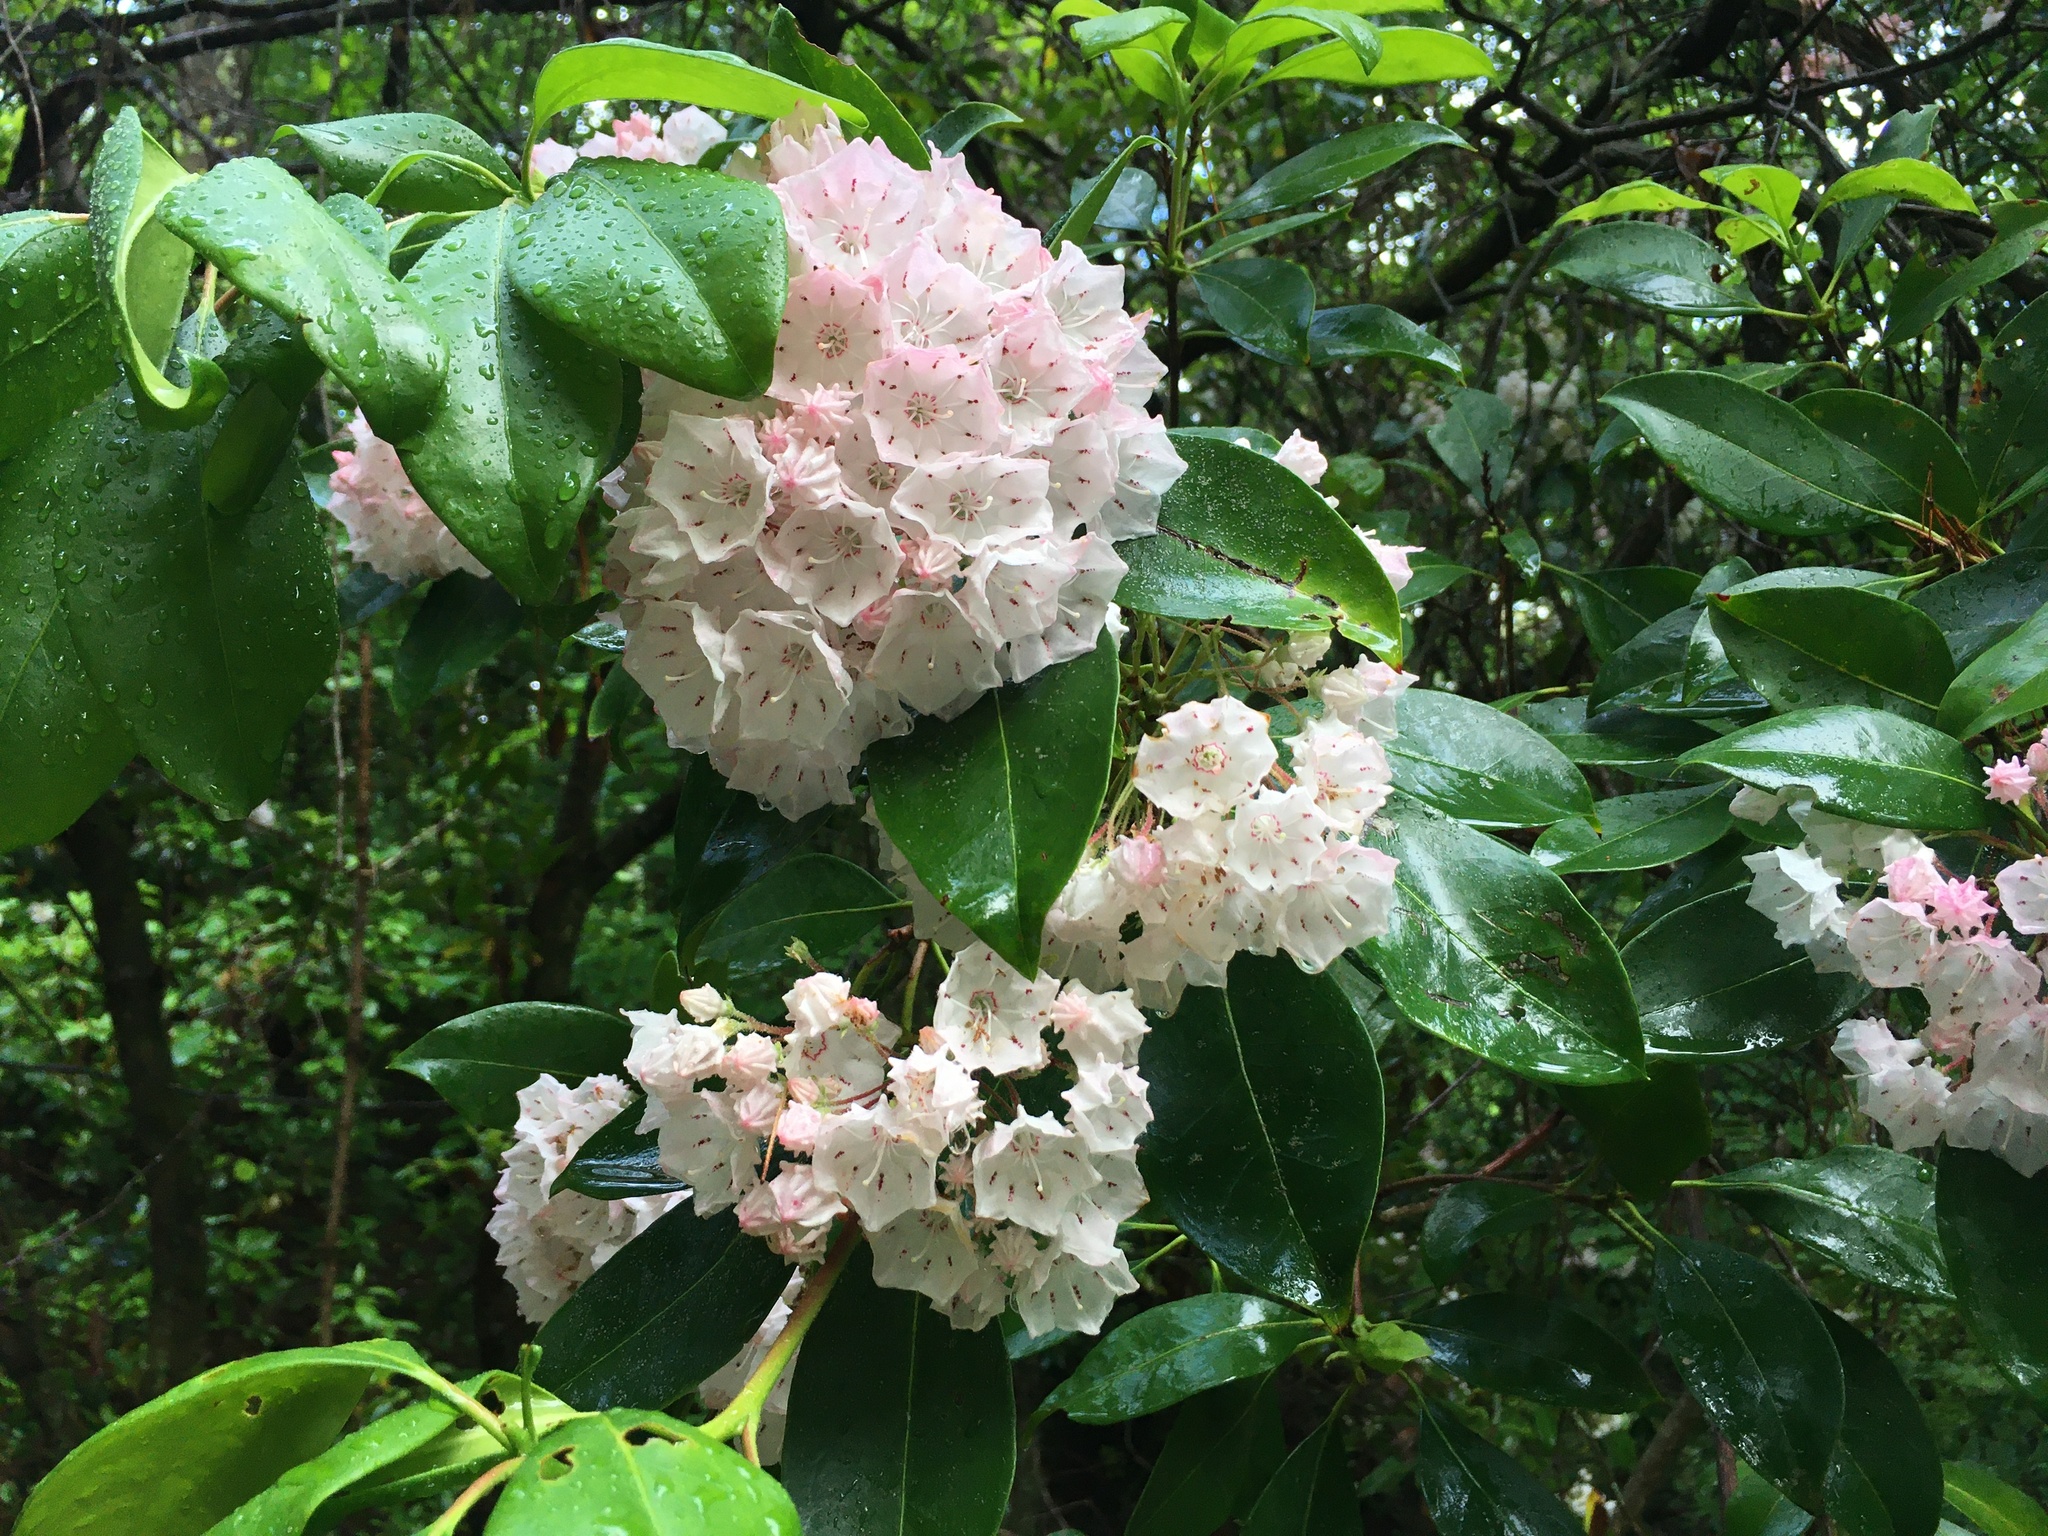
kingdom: Plantae
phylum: Tracheophyta
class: Magnoliopsida
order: Ericales
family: Ericaceae
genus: Kalmia
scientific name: Kalmia latifolia
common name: Mountain-laurel
